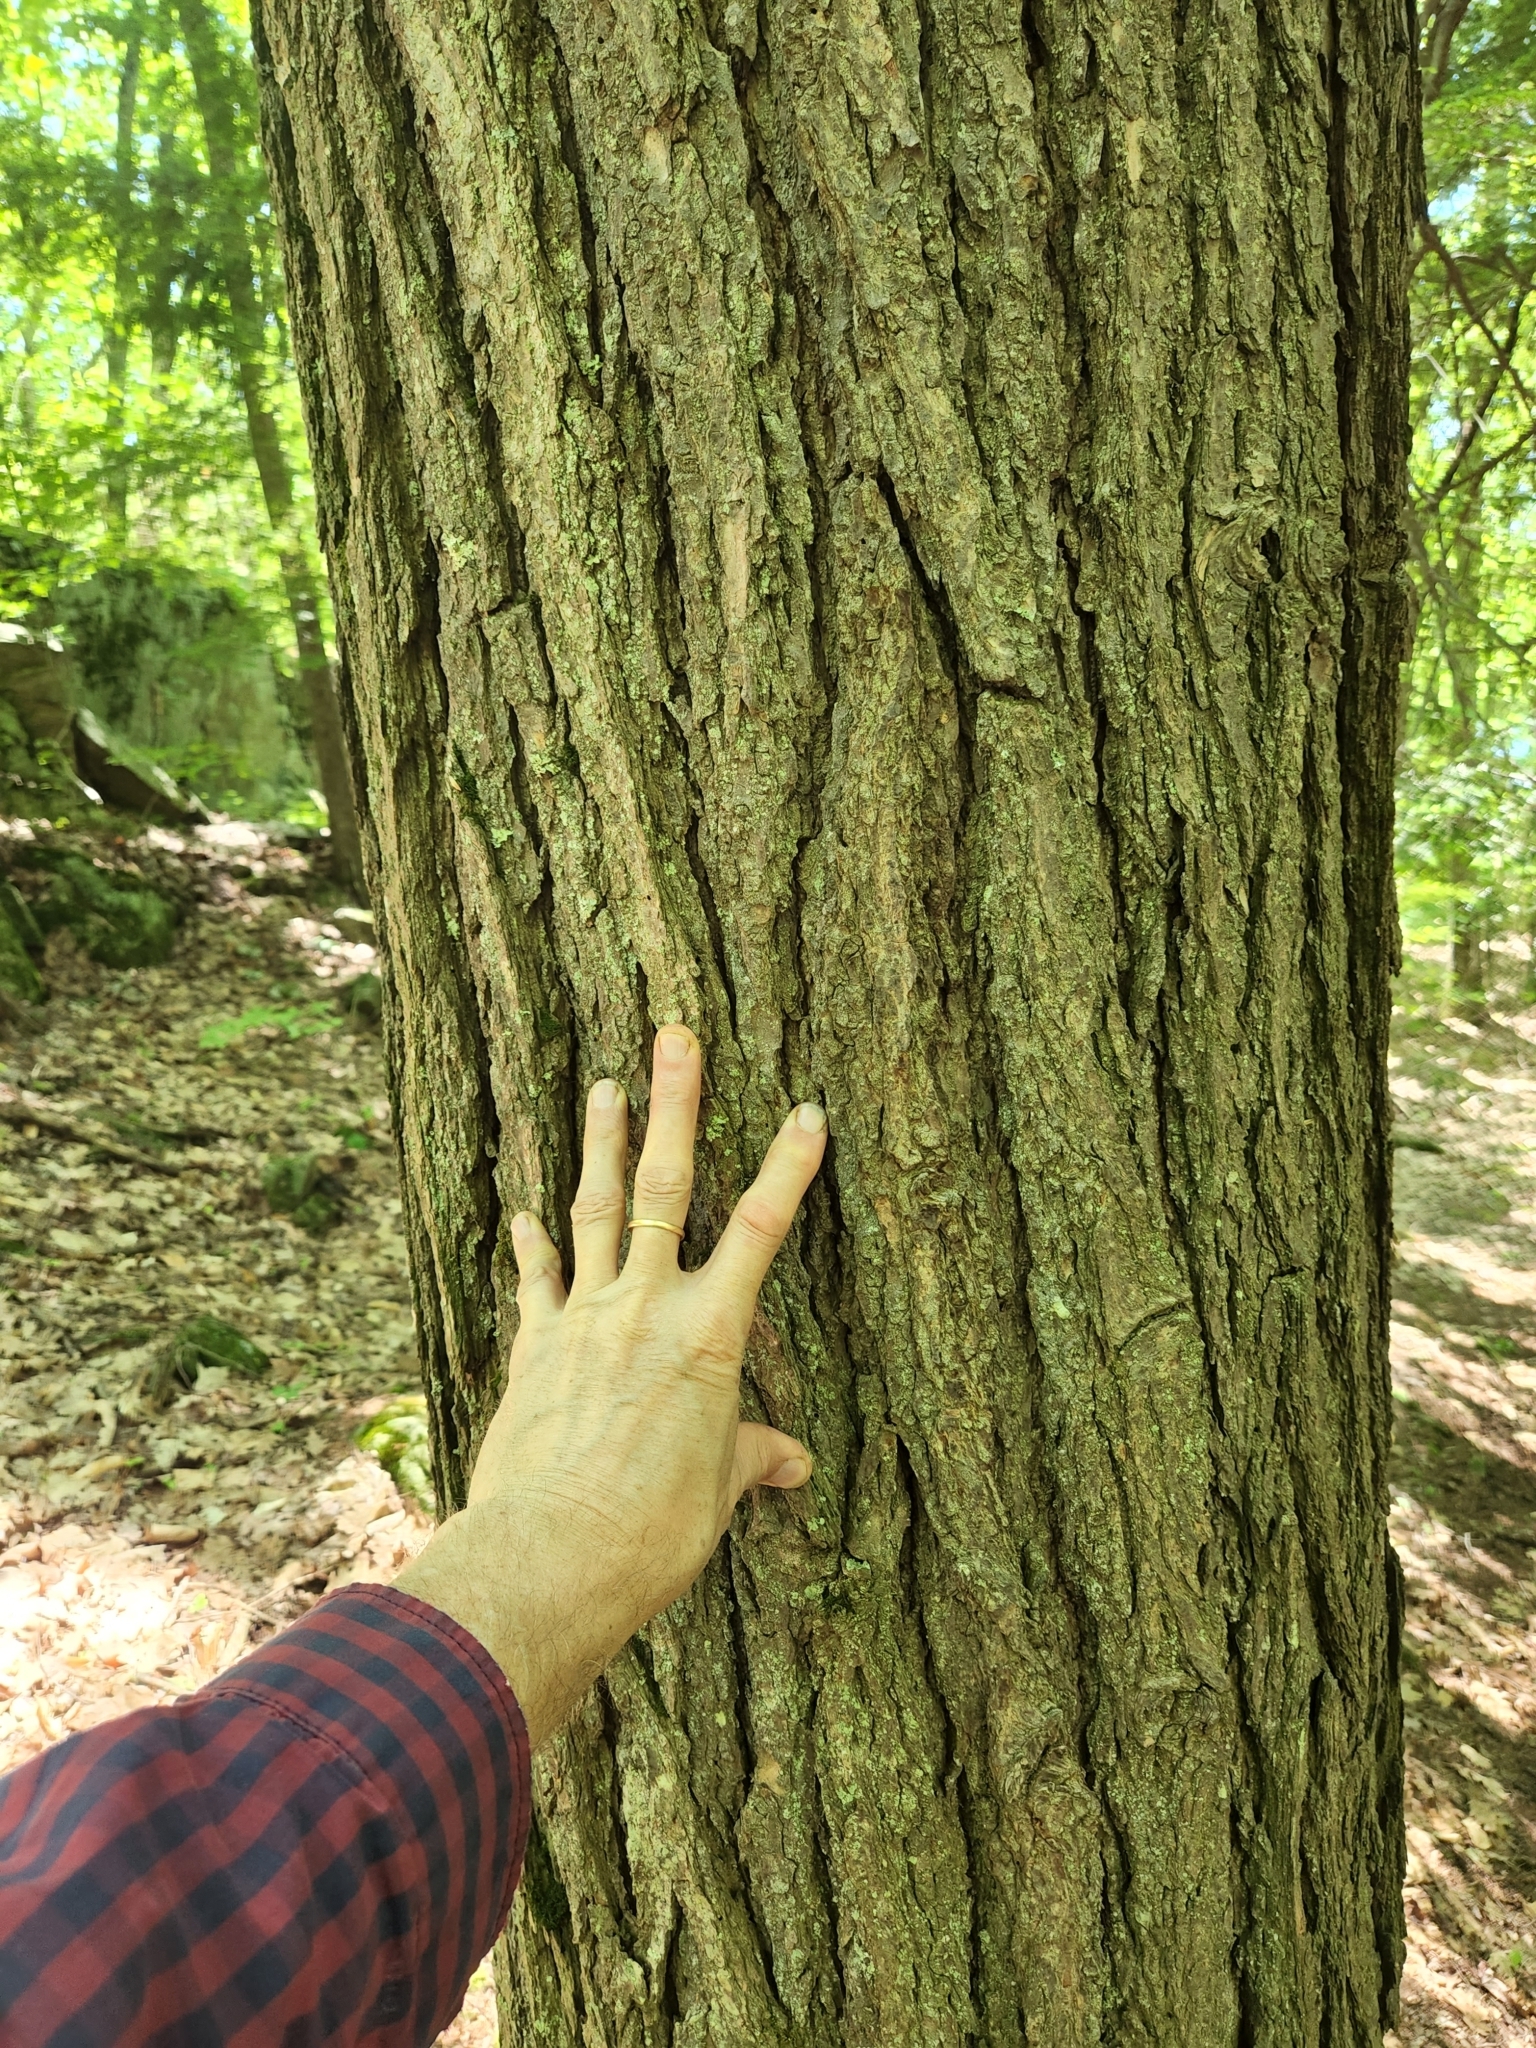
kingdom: Plantae
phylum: Tracheophyta
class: Pinopsida
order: Pinales
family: Pinaceae
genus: Tsuga
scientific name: Tsuga canadensis
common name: Eastern hemlock
